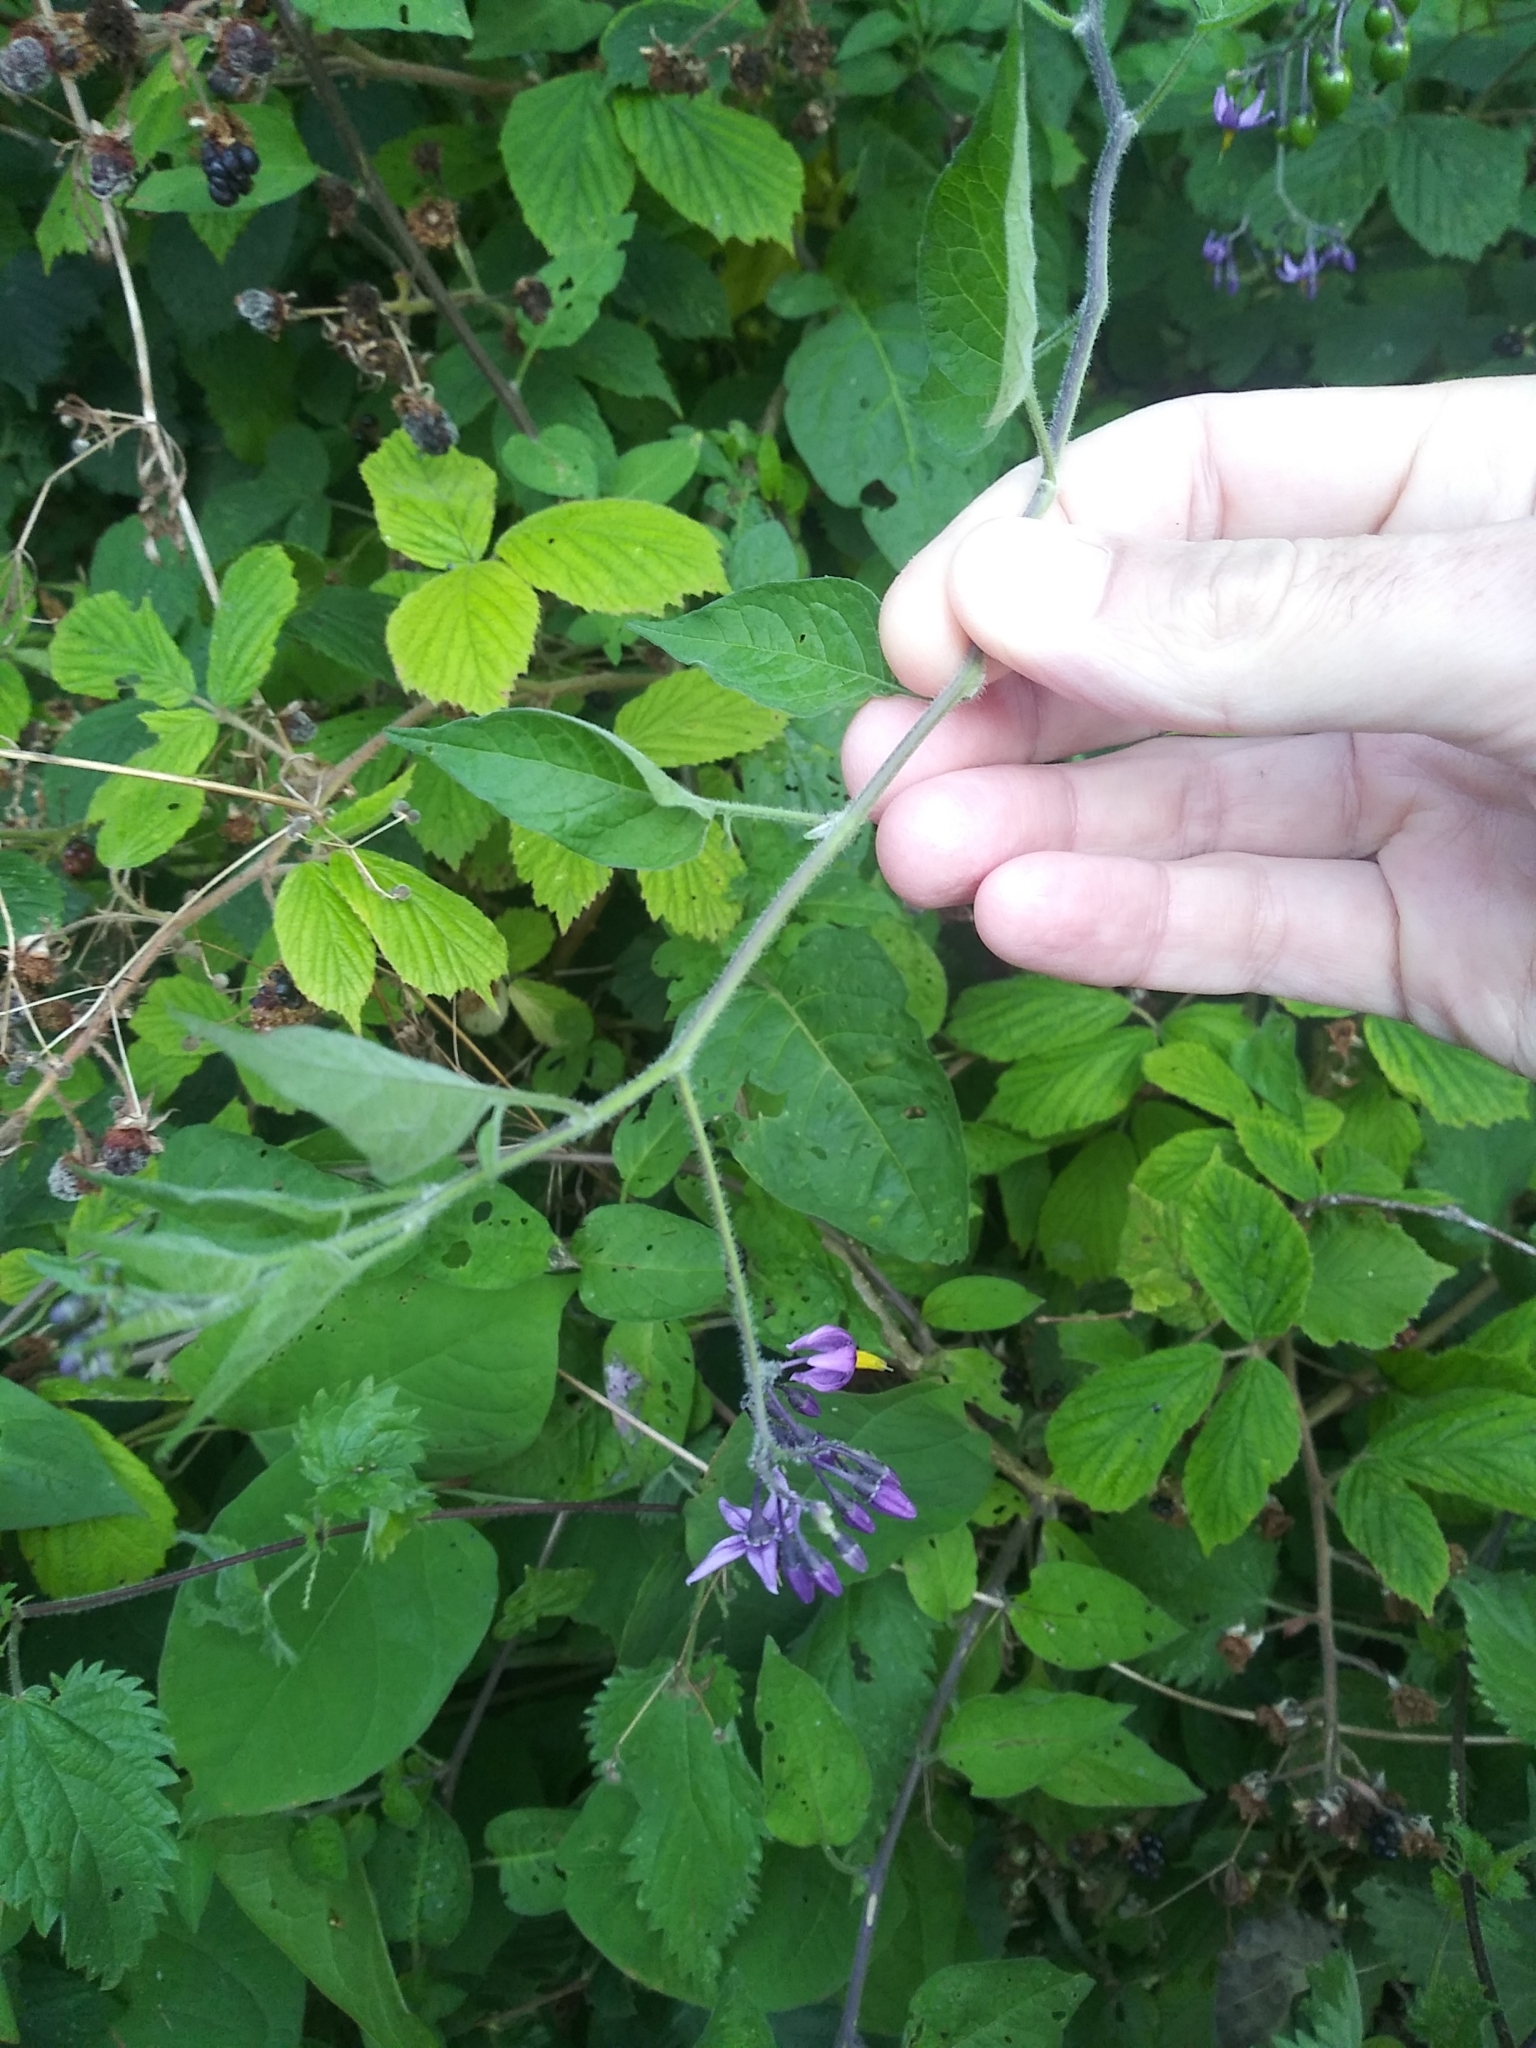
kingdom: Plantae
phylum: Tracheophyta
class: Magnoliopsida
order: Solanales
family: Solanaceae
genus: Solanum
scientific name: Solanum dulcamara
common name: Climbing nightshade
